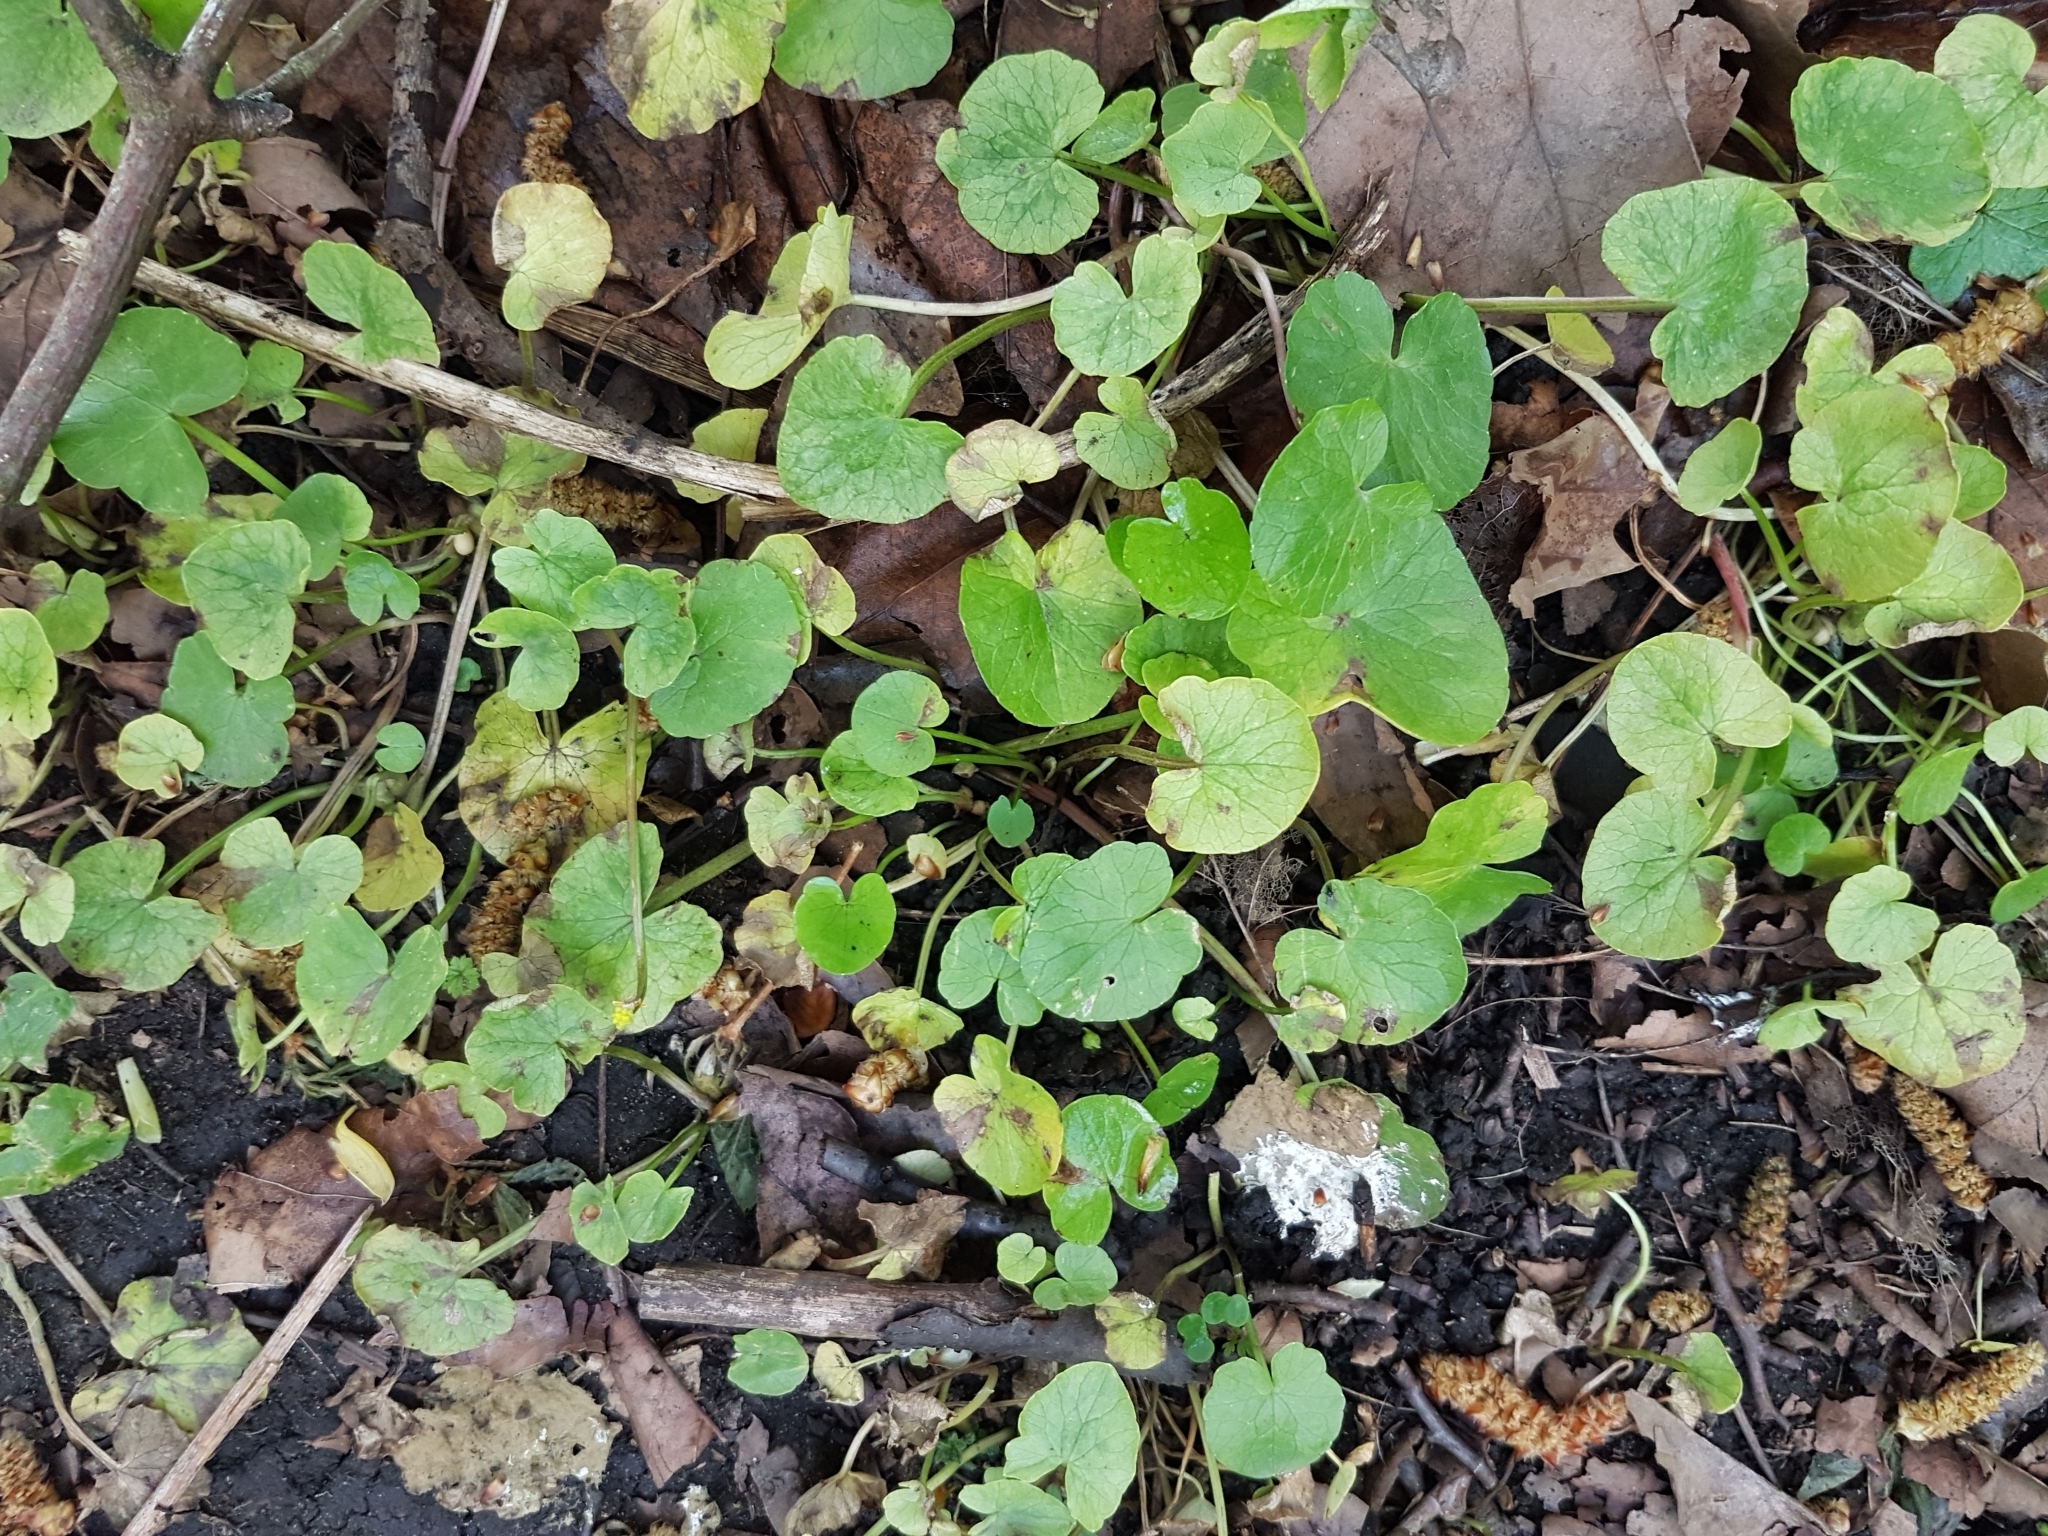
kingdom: Plantae
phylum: Tracheophyta
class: Magnoliopsida
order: Ranunculales
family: Ranunculaceae
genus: Ficaria
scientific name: Ficaria verna
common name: Lesser celandine
